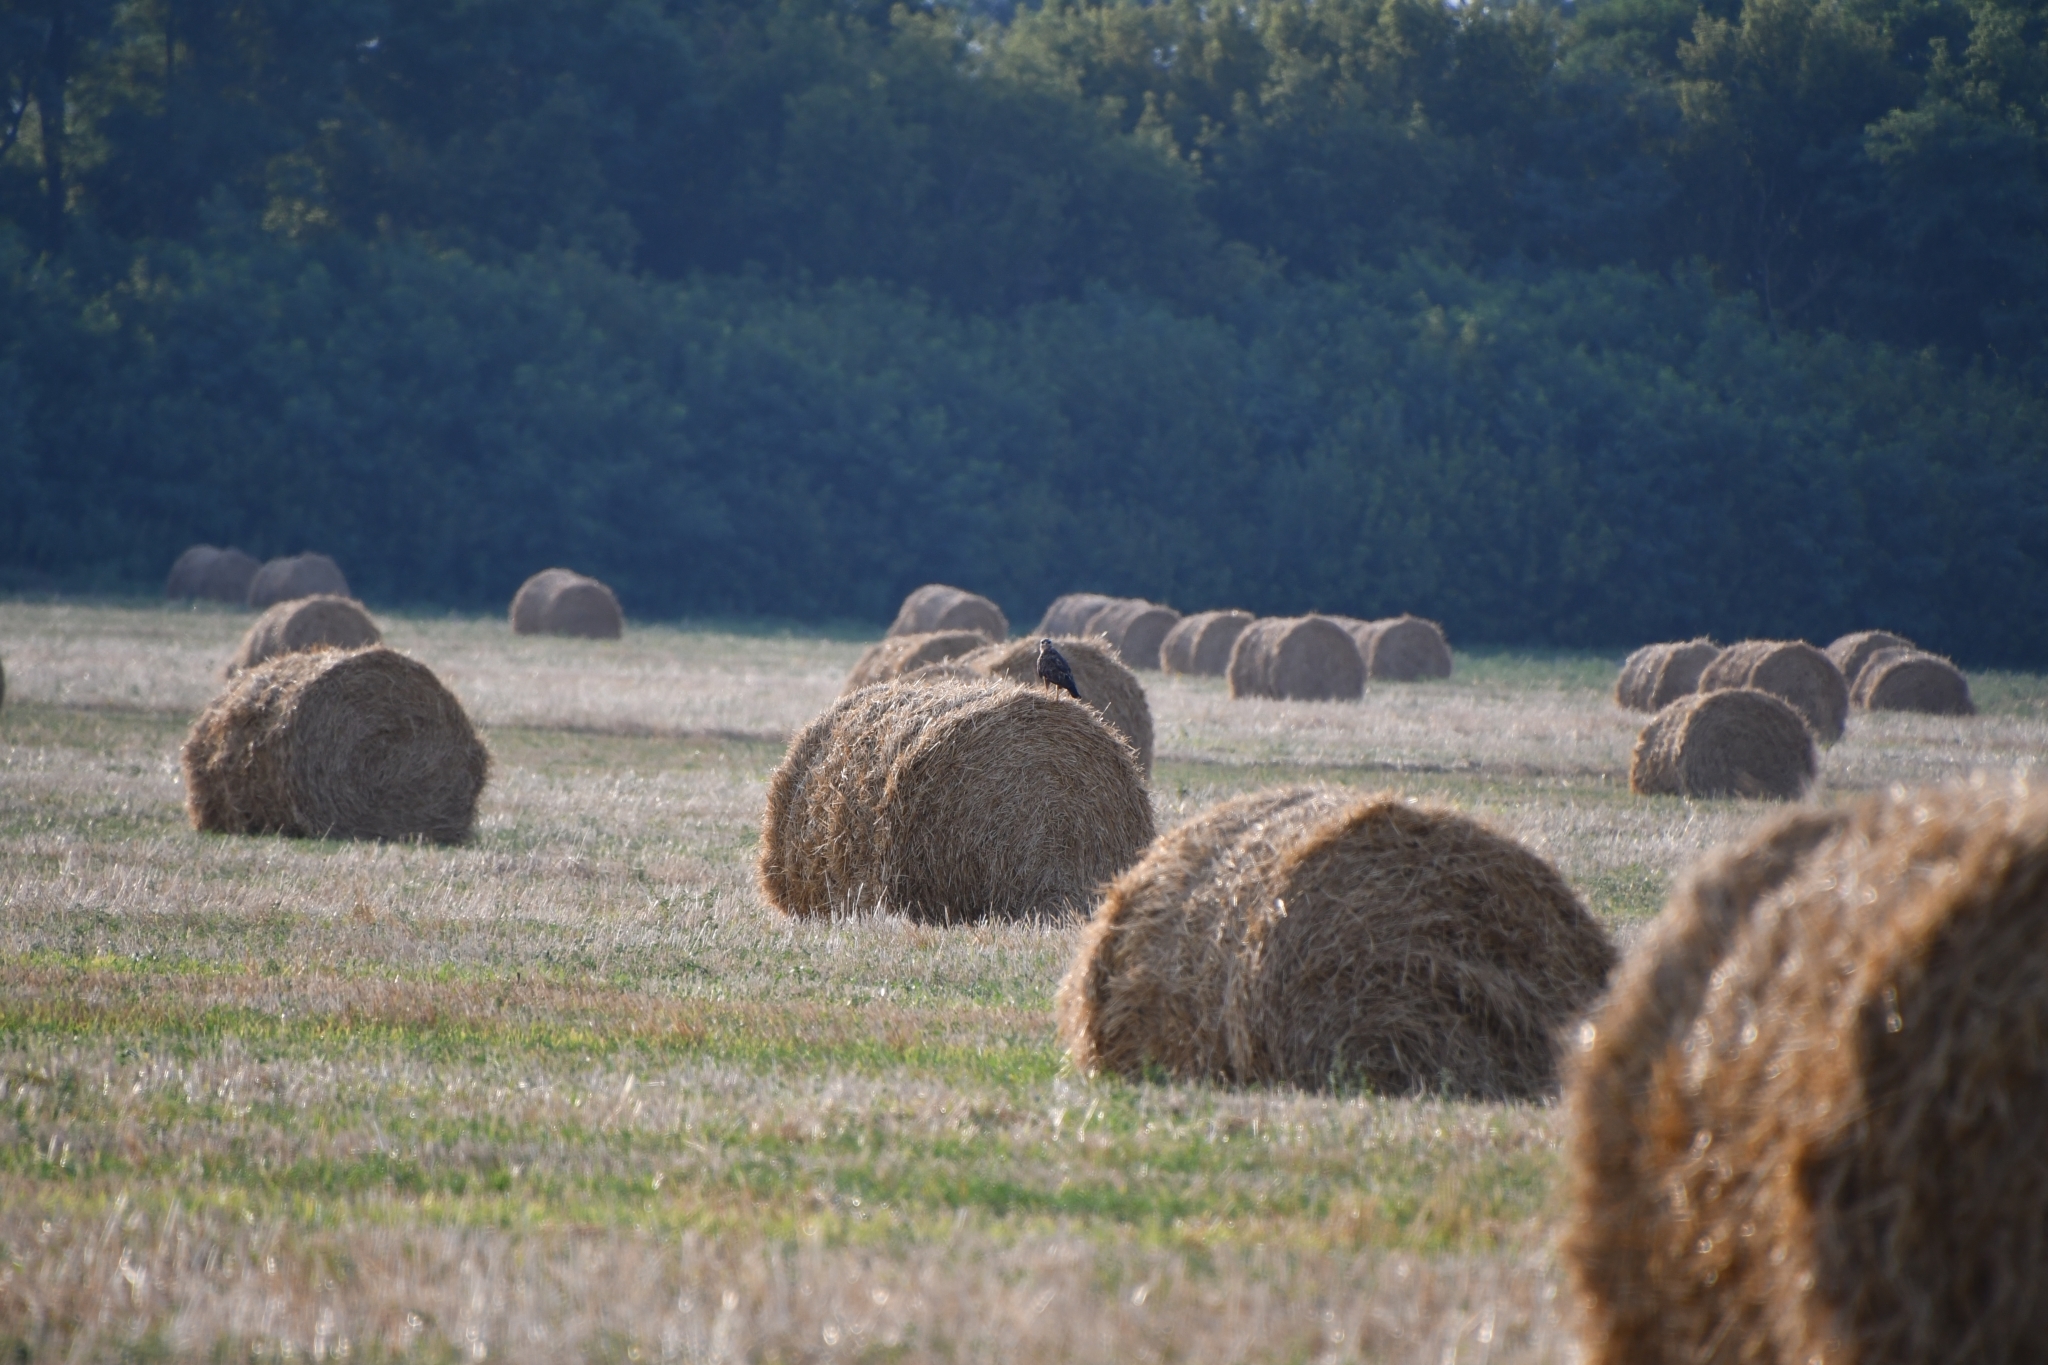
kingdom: Animalia
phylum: Chordata
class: Aves
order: Accipitriformes
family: Accipitridae
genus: Buteo
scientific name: Buteo buteo
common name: Common buzzard
